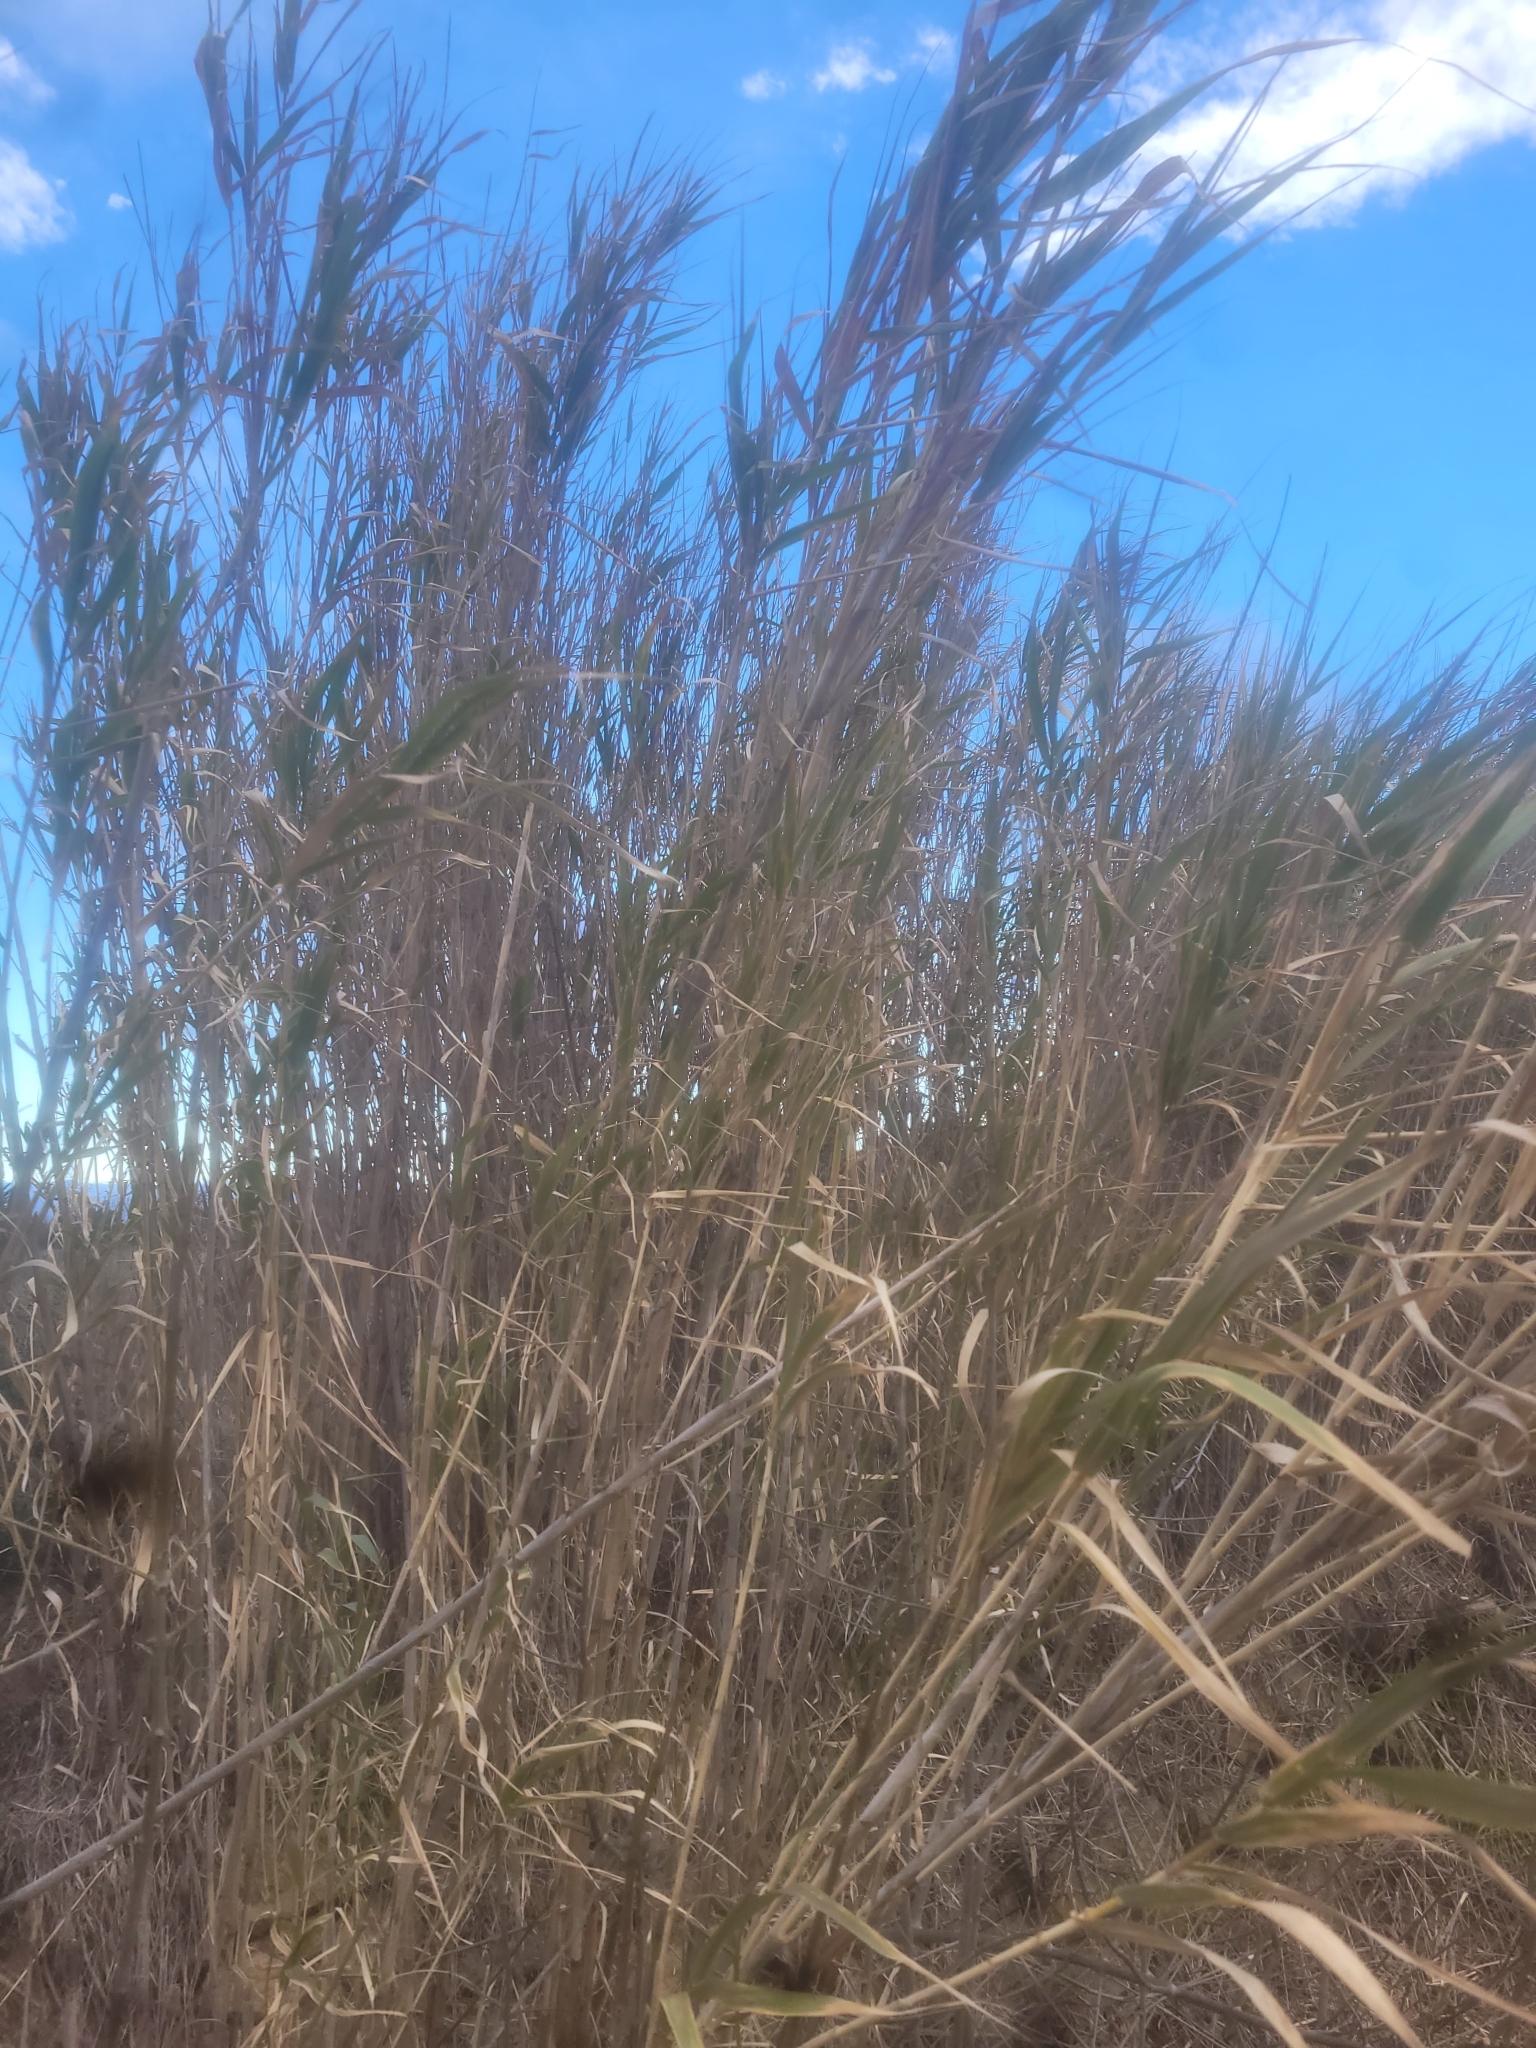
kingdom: Plantae
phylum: Tracheophyta
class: Liliopsida
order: Poales
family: Poaceae
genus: Arundo
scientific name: Arundo donax
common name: Giant reed
